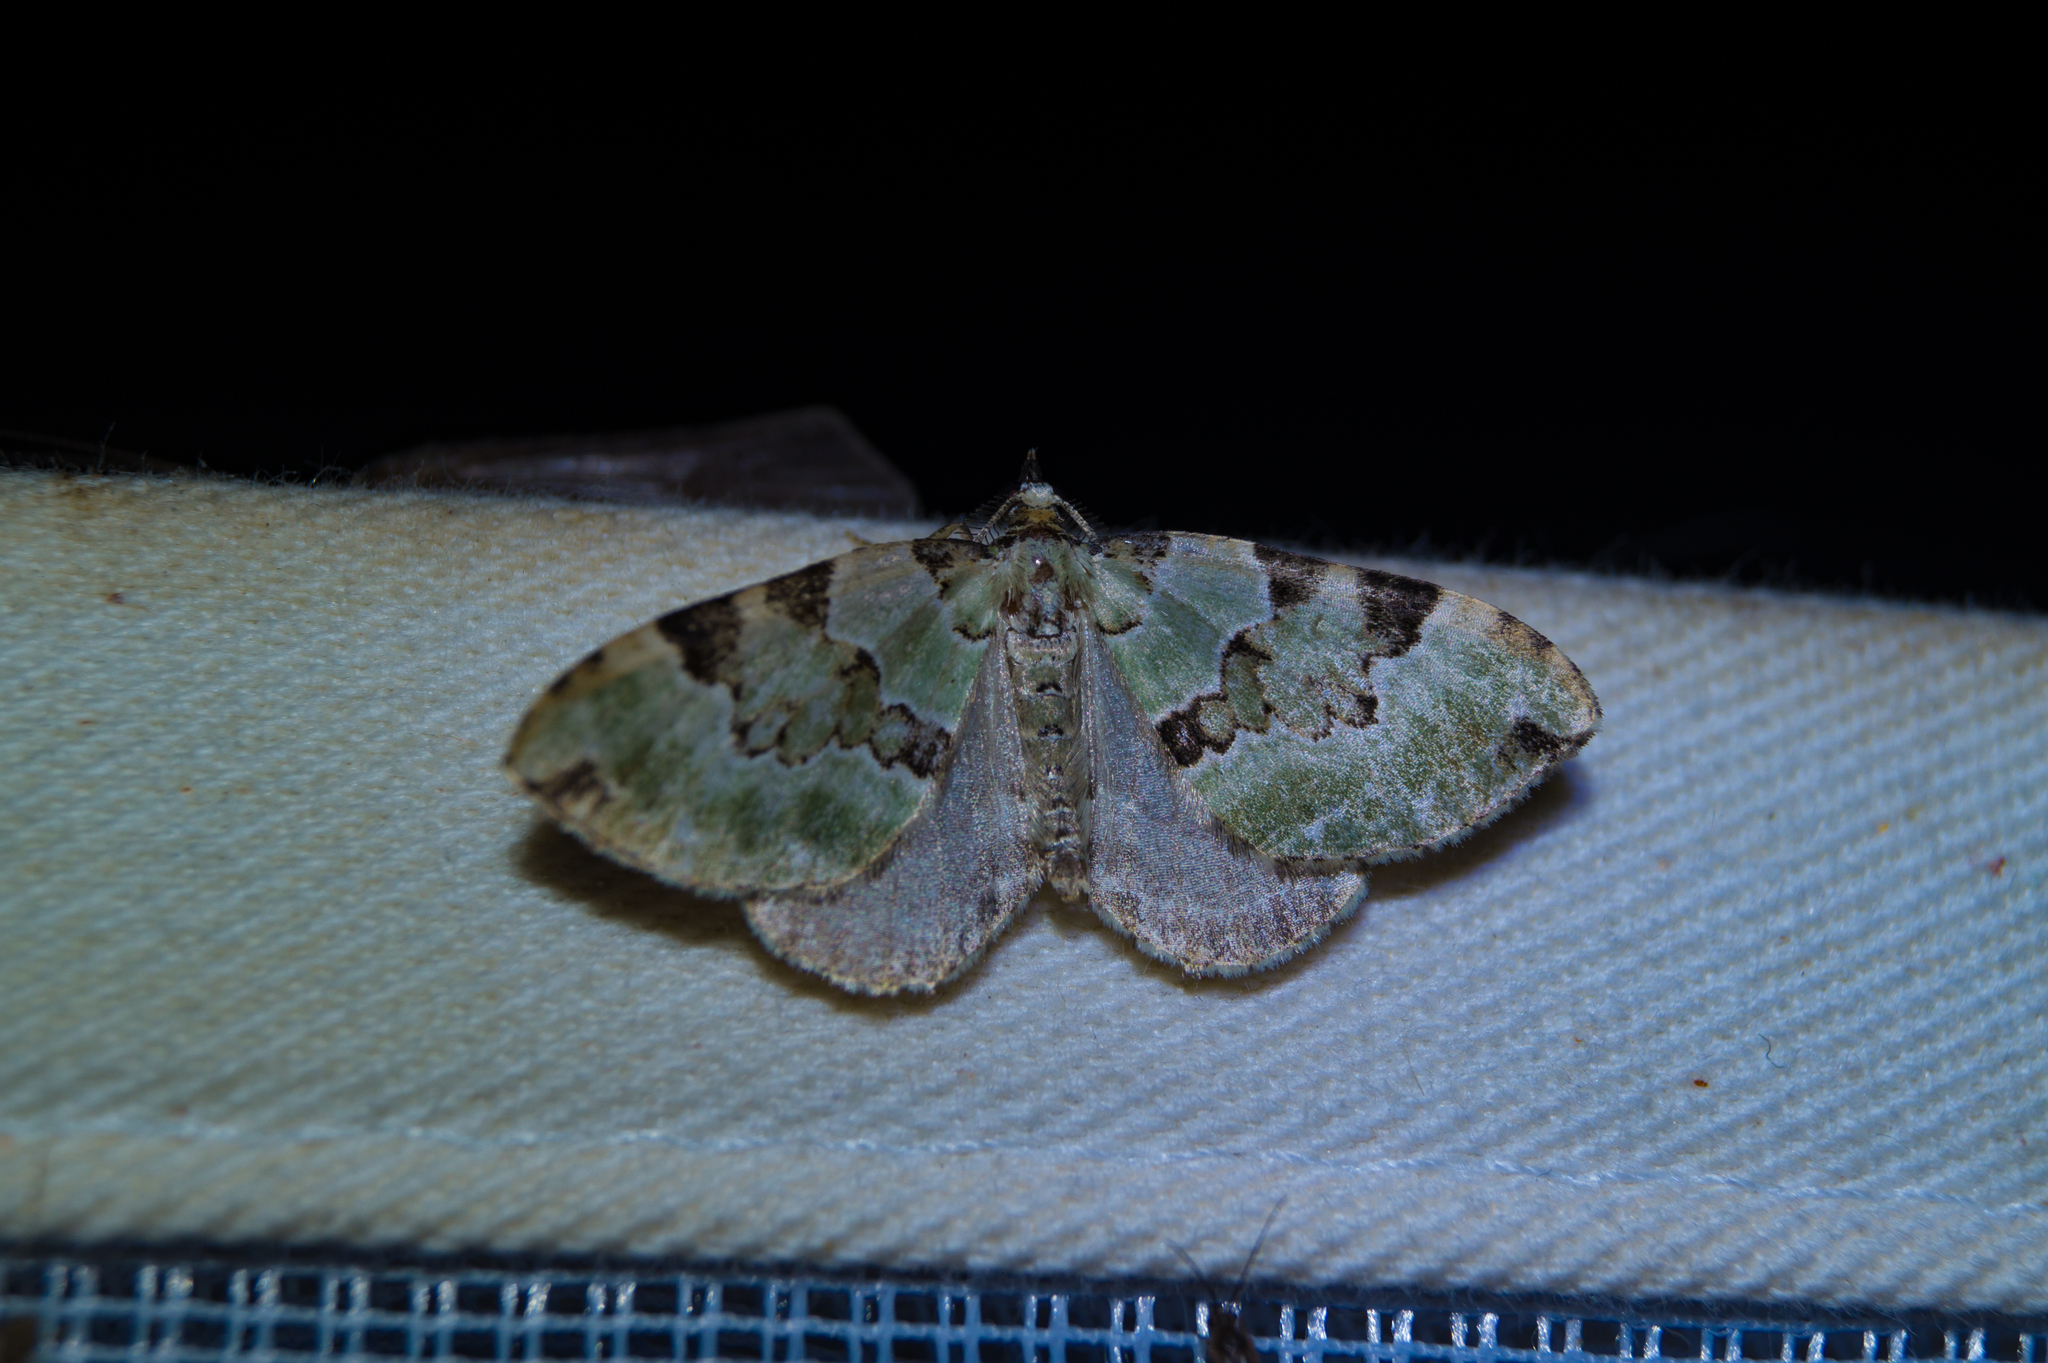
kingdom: Animalia
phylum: Arthropoda
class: Insecta
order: Lepidoptera
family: Geometridae
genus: Colostygia
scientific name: Colostygia pectinataria
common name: Green carpet
